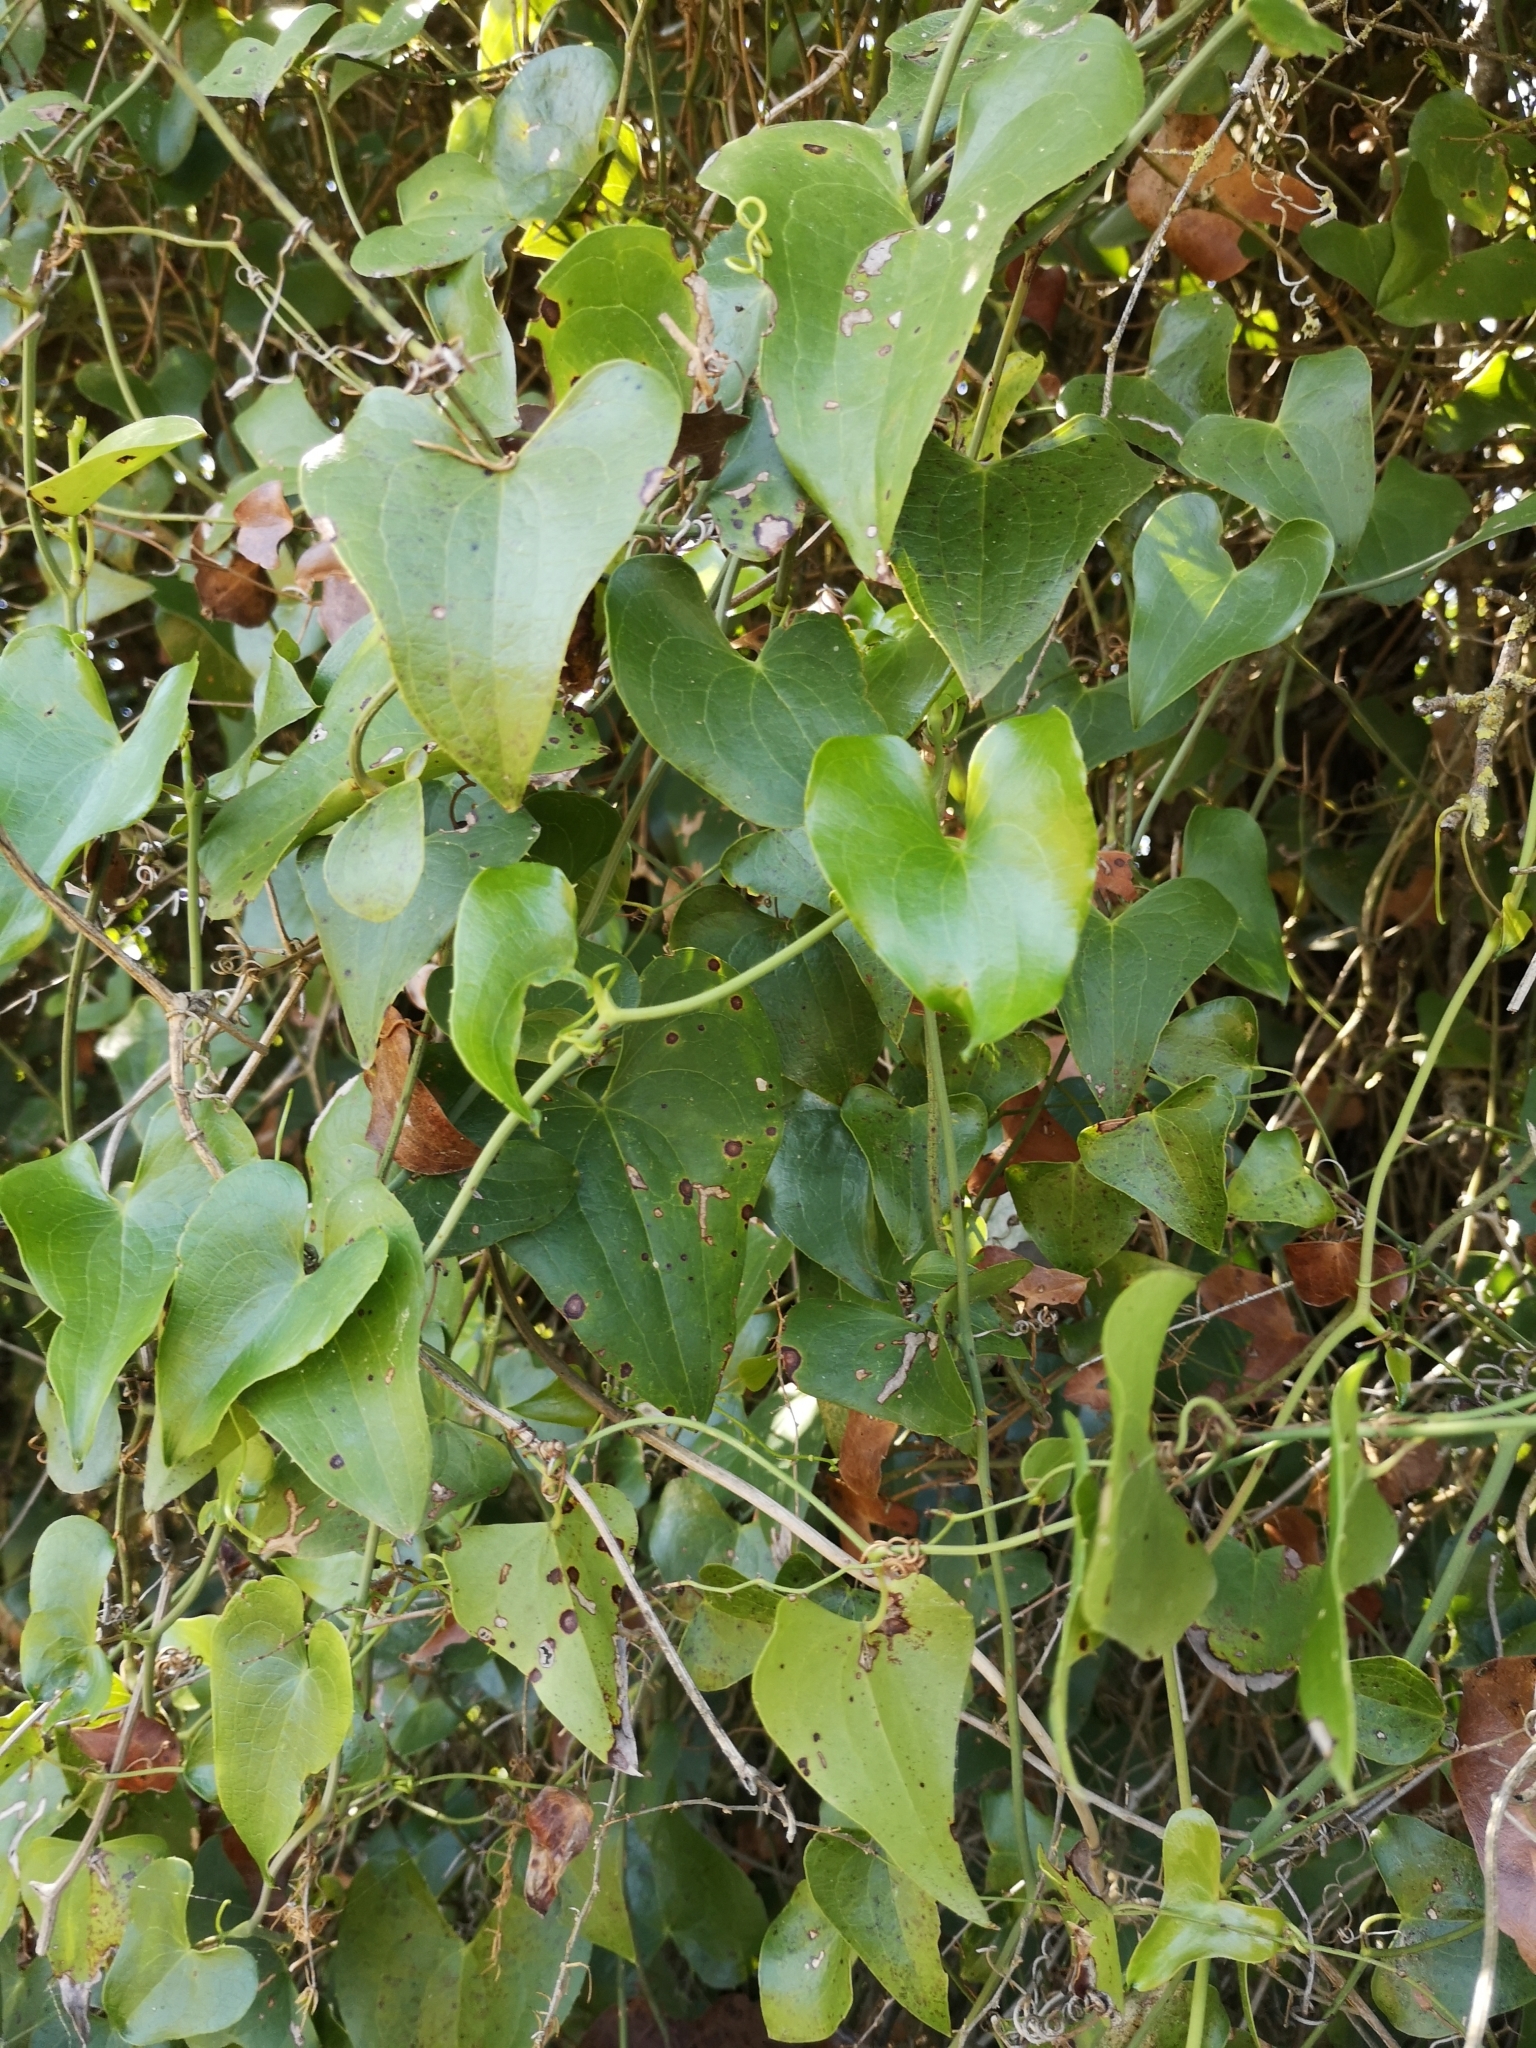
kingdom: Plantae
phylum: Tracheophyta
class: Liliopsida
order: Liliales
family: Smilacaceae
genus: Smilax
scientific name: Smilax aspera
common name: Common smilax
